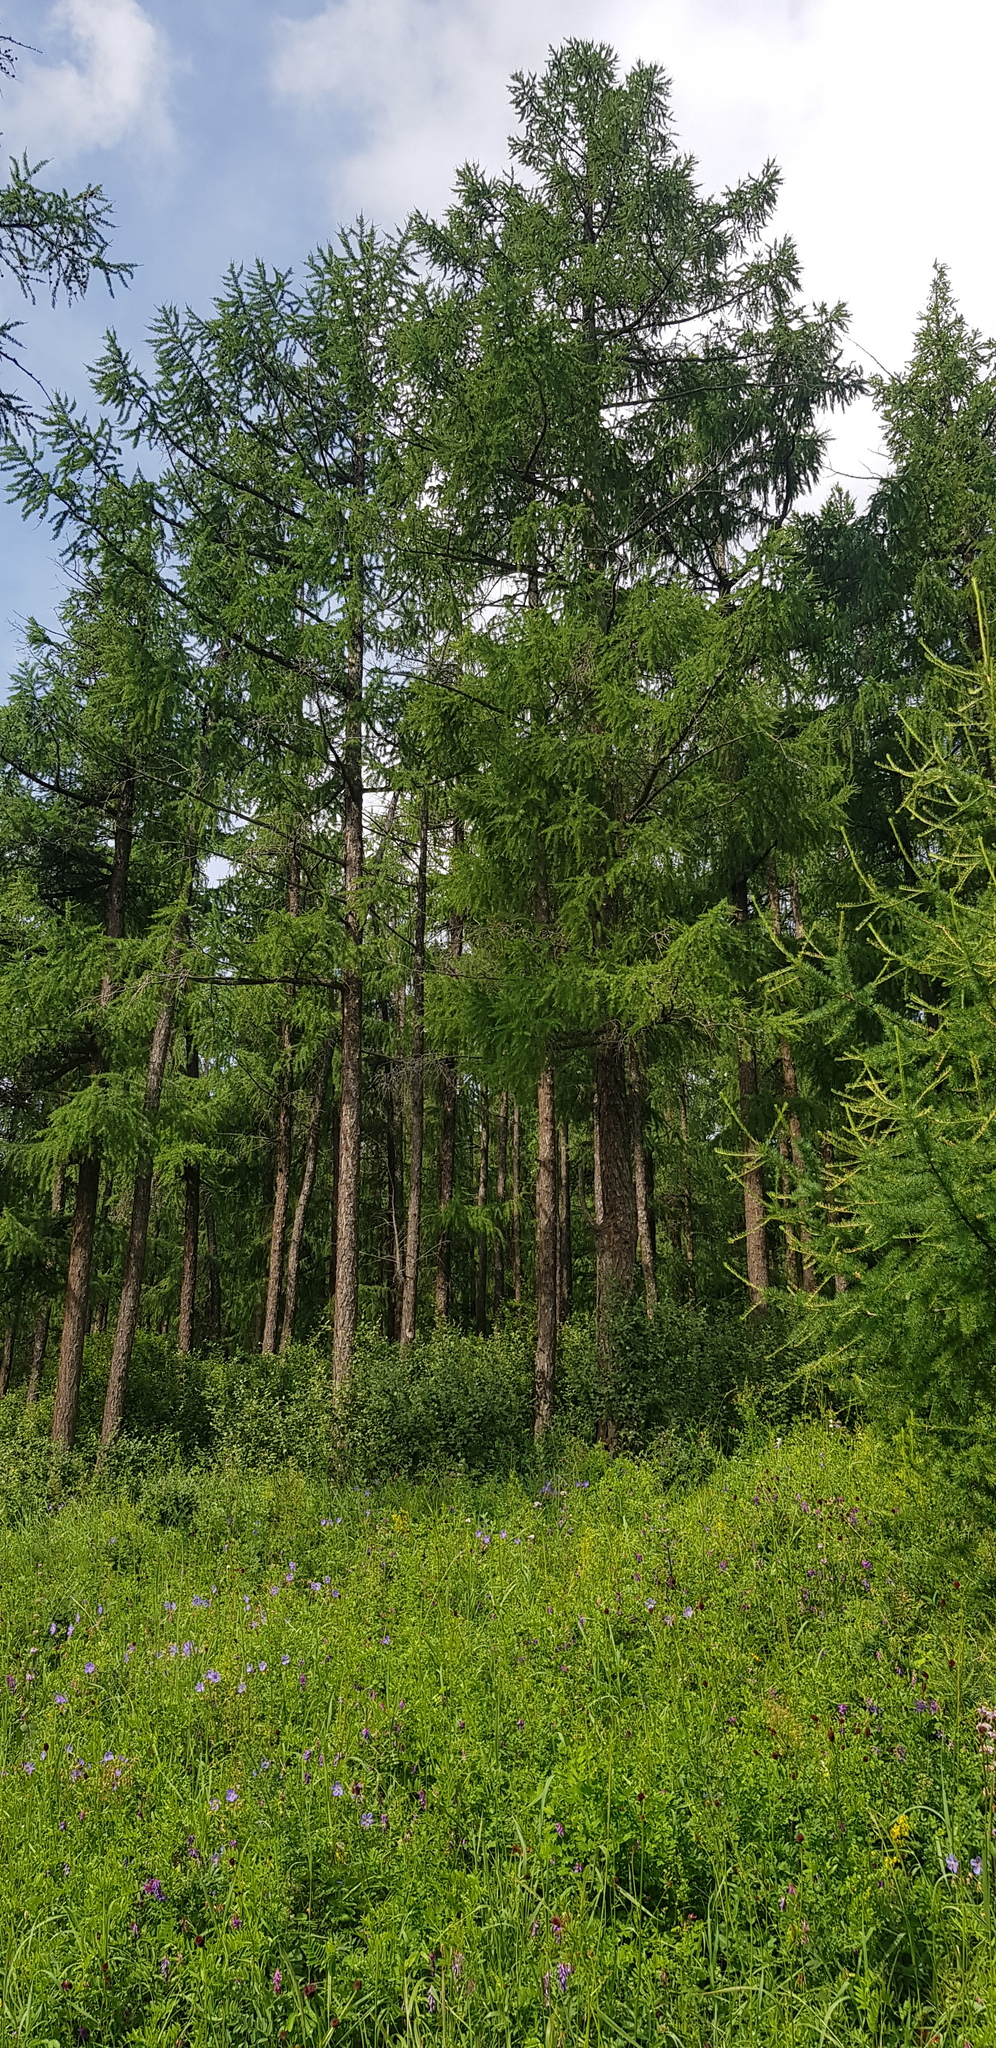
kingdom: Plantae
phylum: Tracheophyta
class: Pinopsida
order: Pinales
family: Pinaceae
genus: Larix
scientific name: Larix sibirica
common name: Siberian larch
